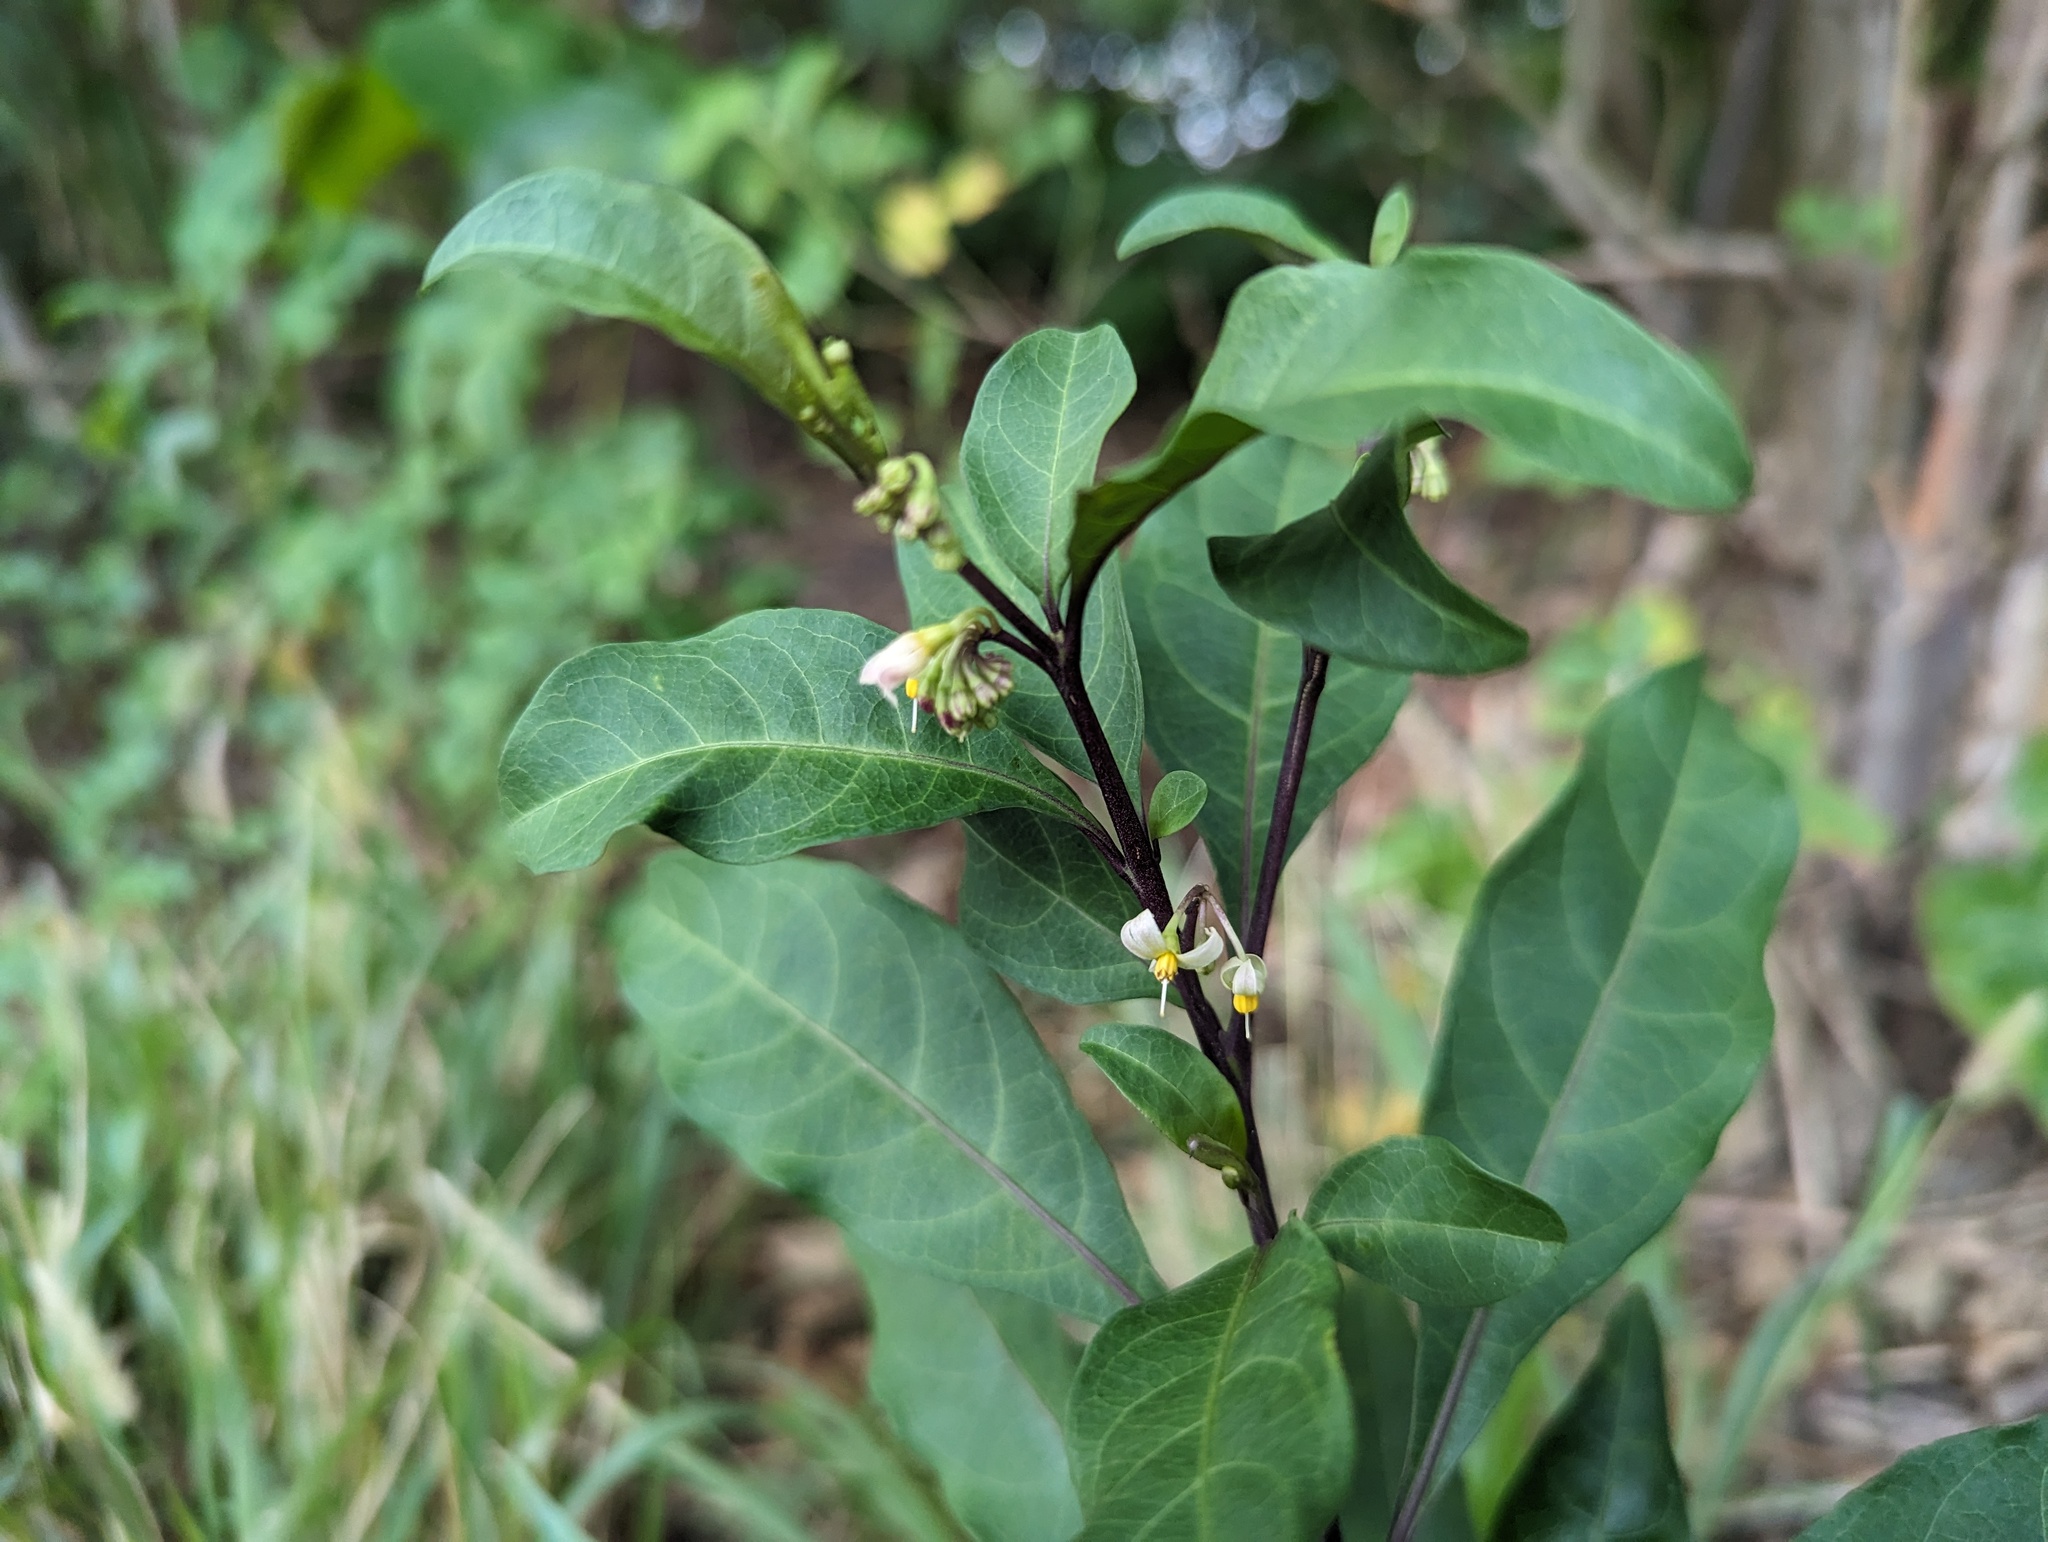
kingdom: Plantae
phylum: Tracheophyta
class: Magnoliopsida
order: Solanales
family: Solanaceae
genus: Solanum
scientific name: Solanum diphyllum
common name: Twoleaf nightshade
